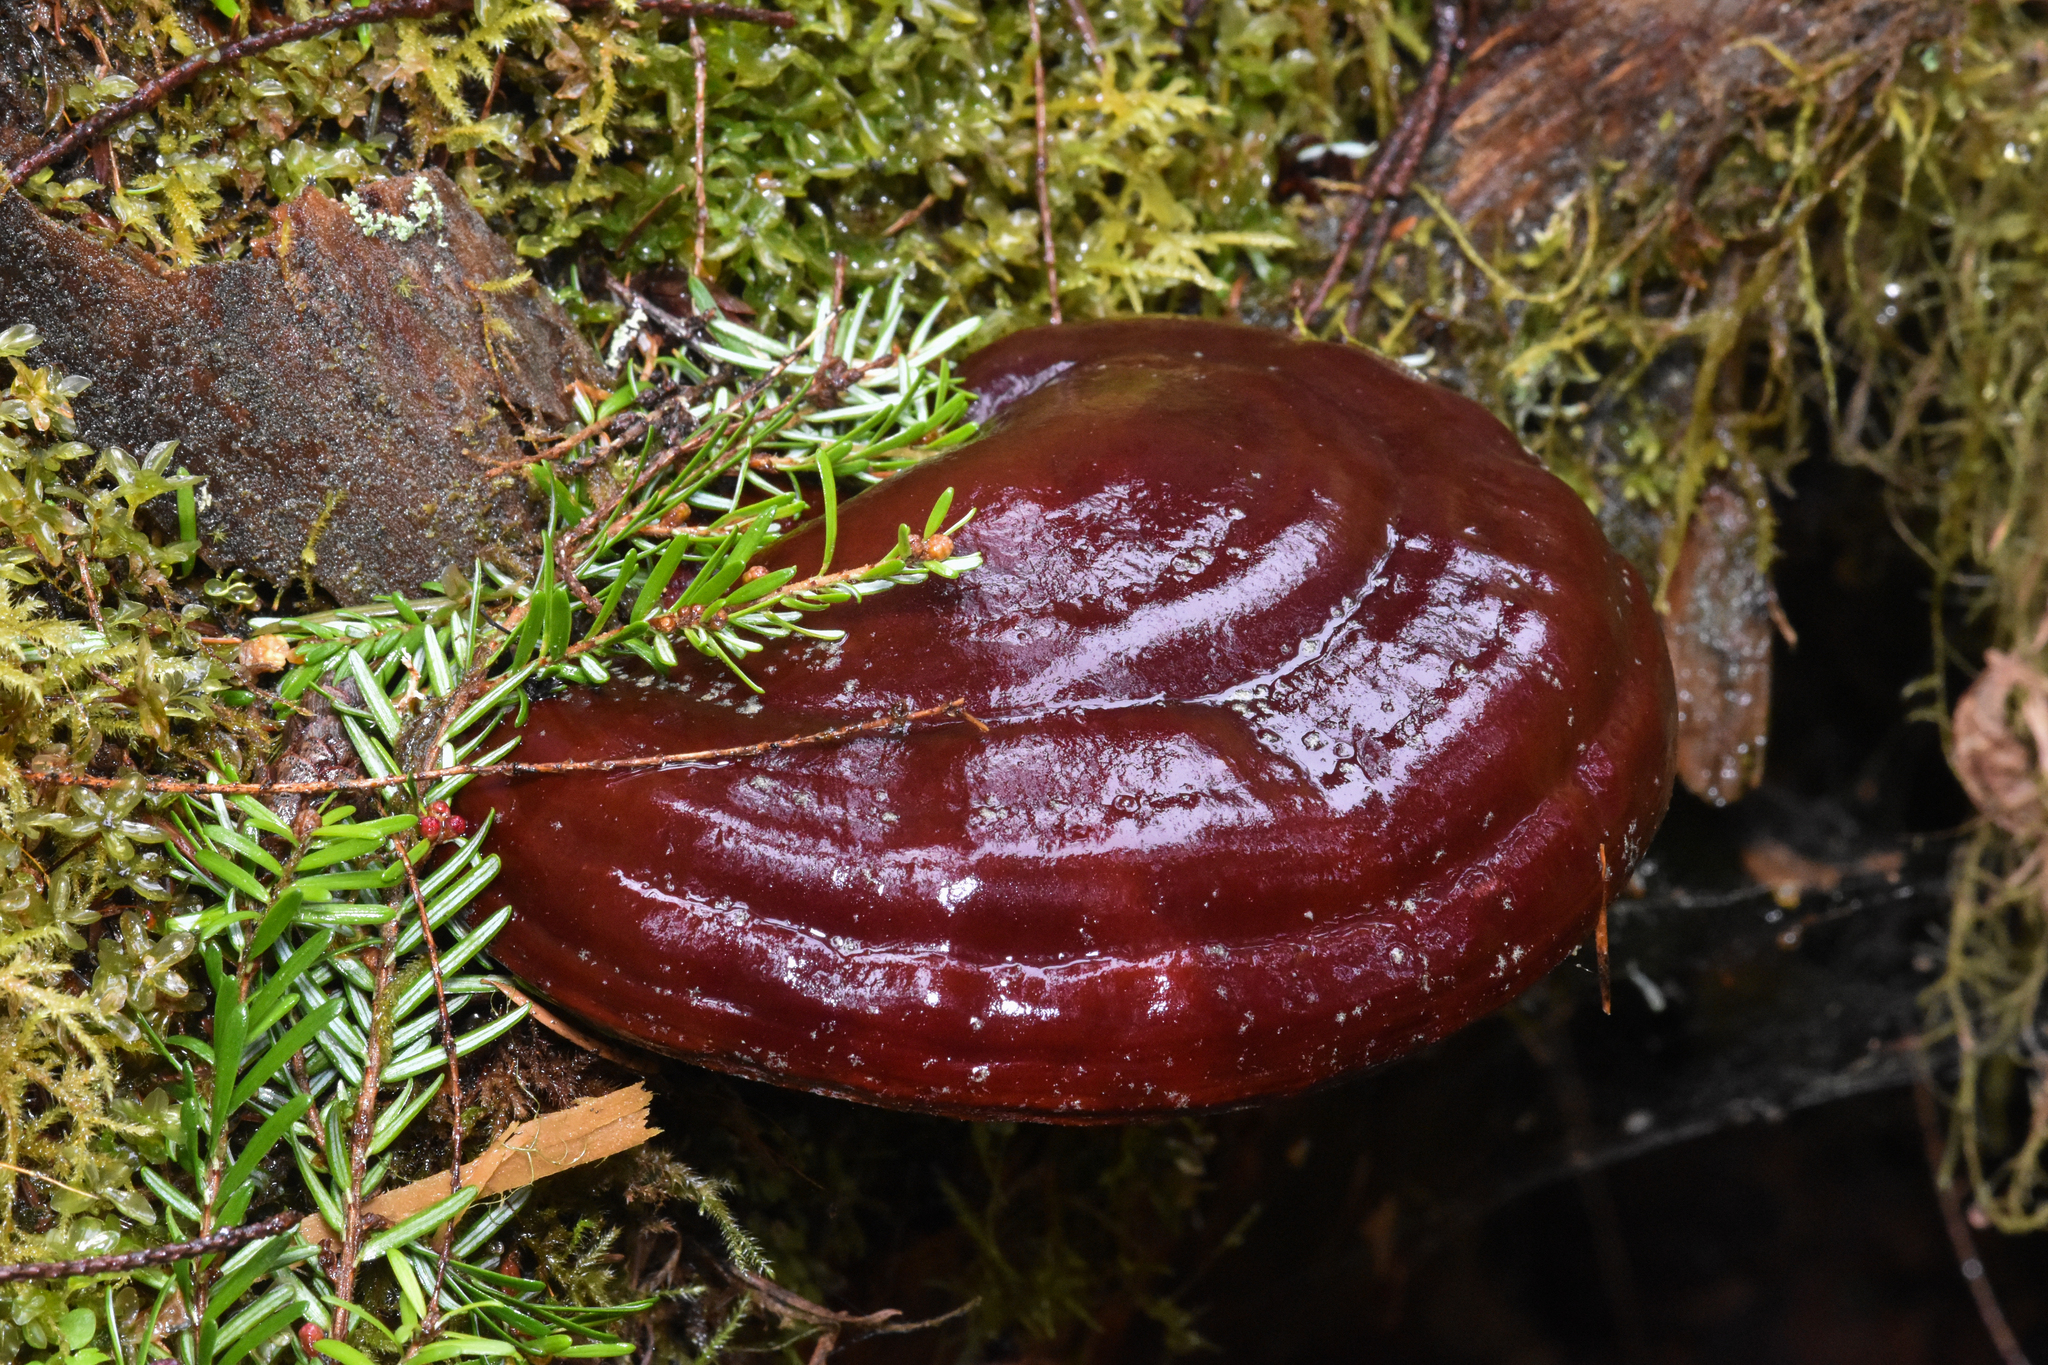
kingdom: Fungi
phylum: Basidiomycota
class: Agaricomycetes
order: Polyporales
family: Polyporaceae
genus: Ganoderma
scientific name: Ganoderma oregonense
